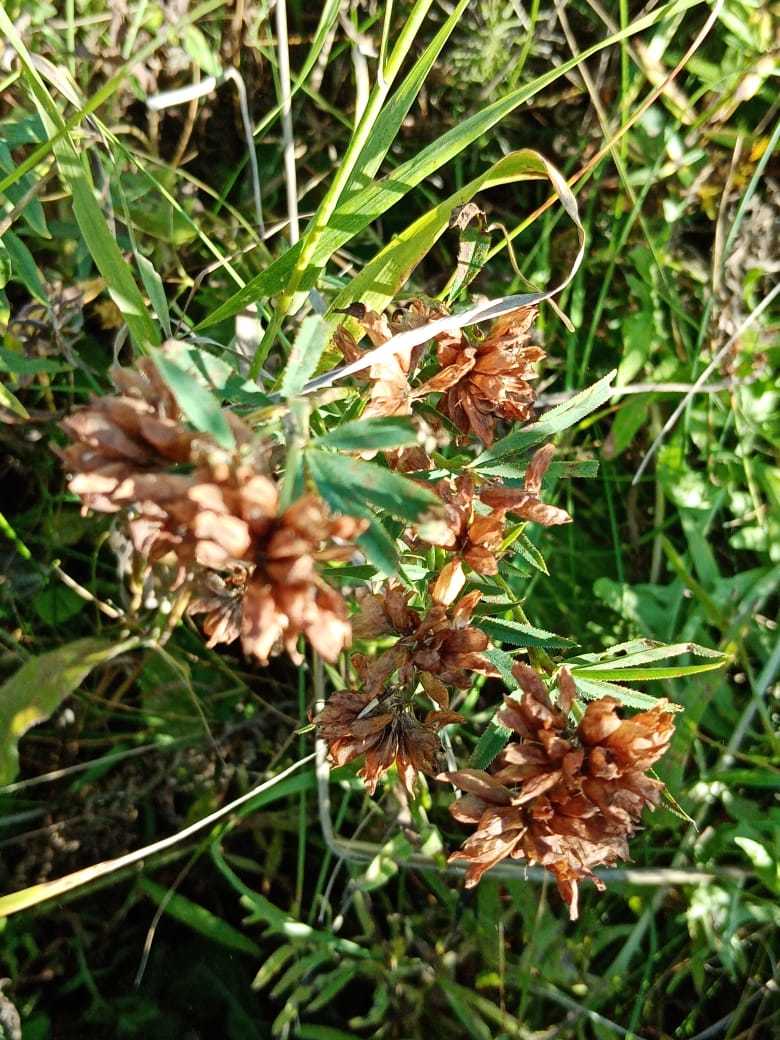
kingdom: Plantae
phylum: Tracheophyta
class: Magnoliopsida
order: Fabales
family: Fabaceae
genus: Trifolium
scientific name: Trifolium lupinaster
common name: Lupine clover
